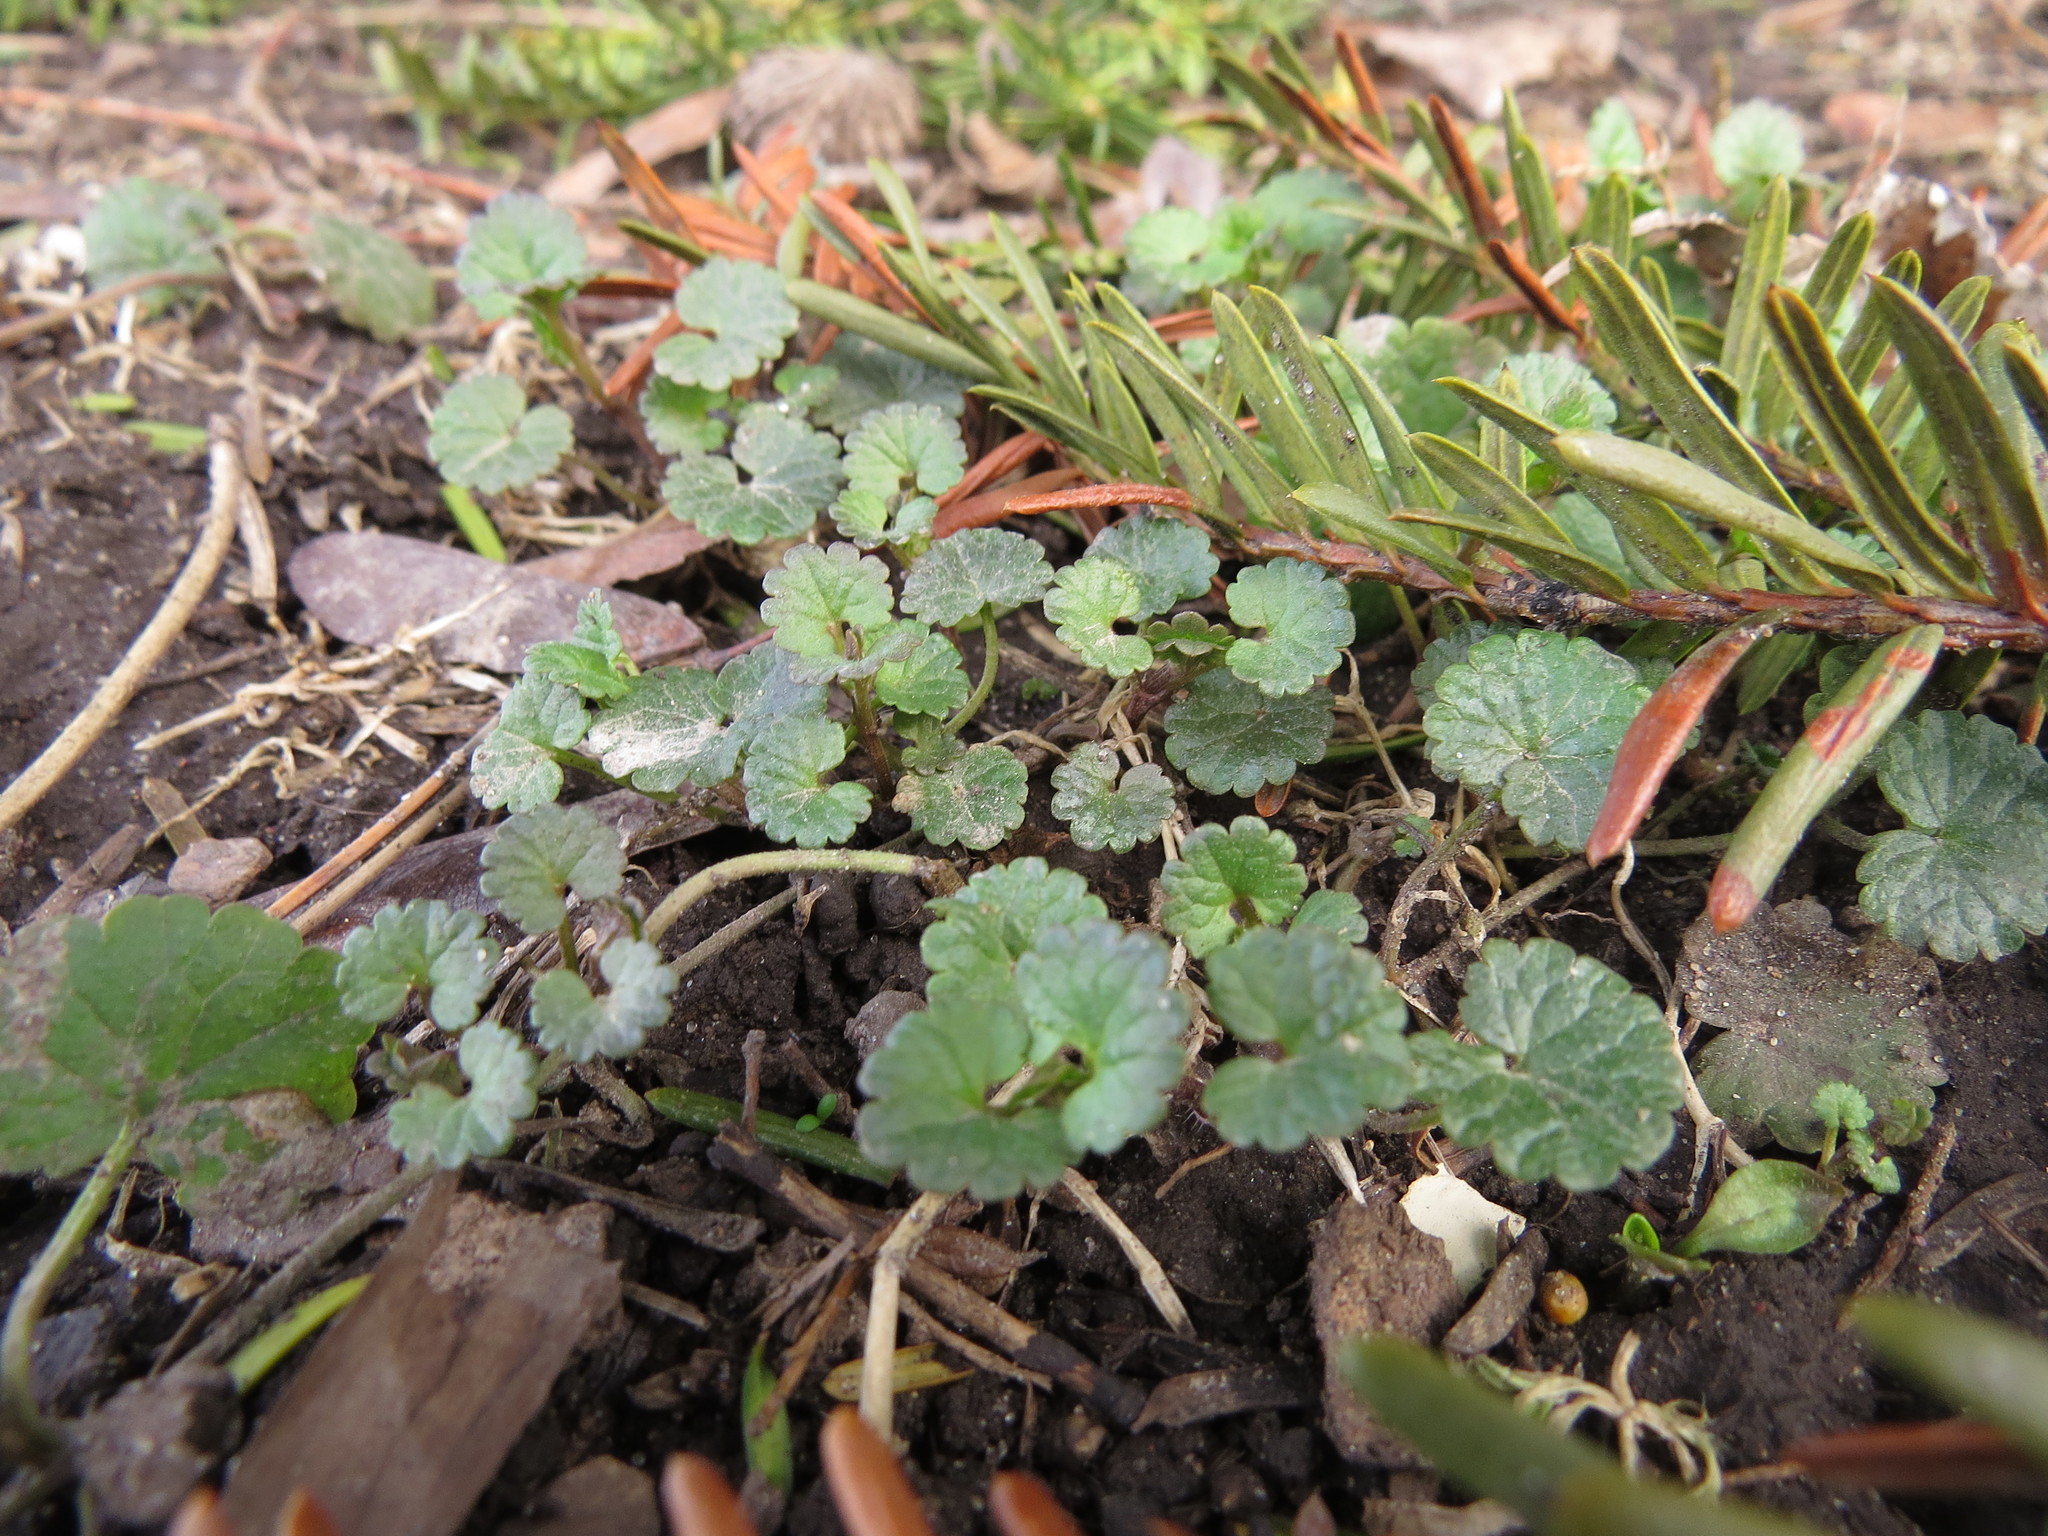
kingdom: Plantae
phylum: Tracheophyta
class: Magnoliopsida
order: Lamiales
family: Lamiaceae
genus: Glechoma
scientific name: Glechoma hederacea
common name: Ground ivy
